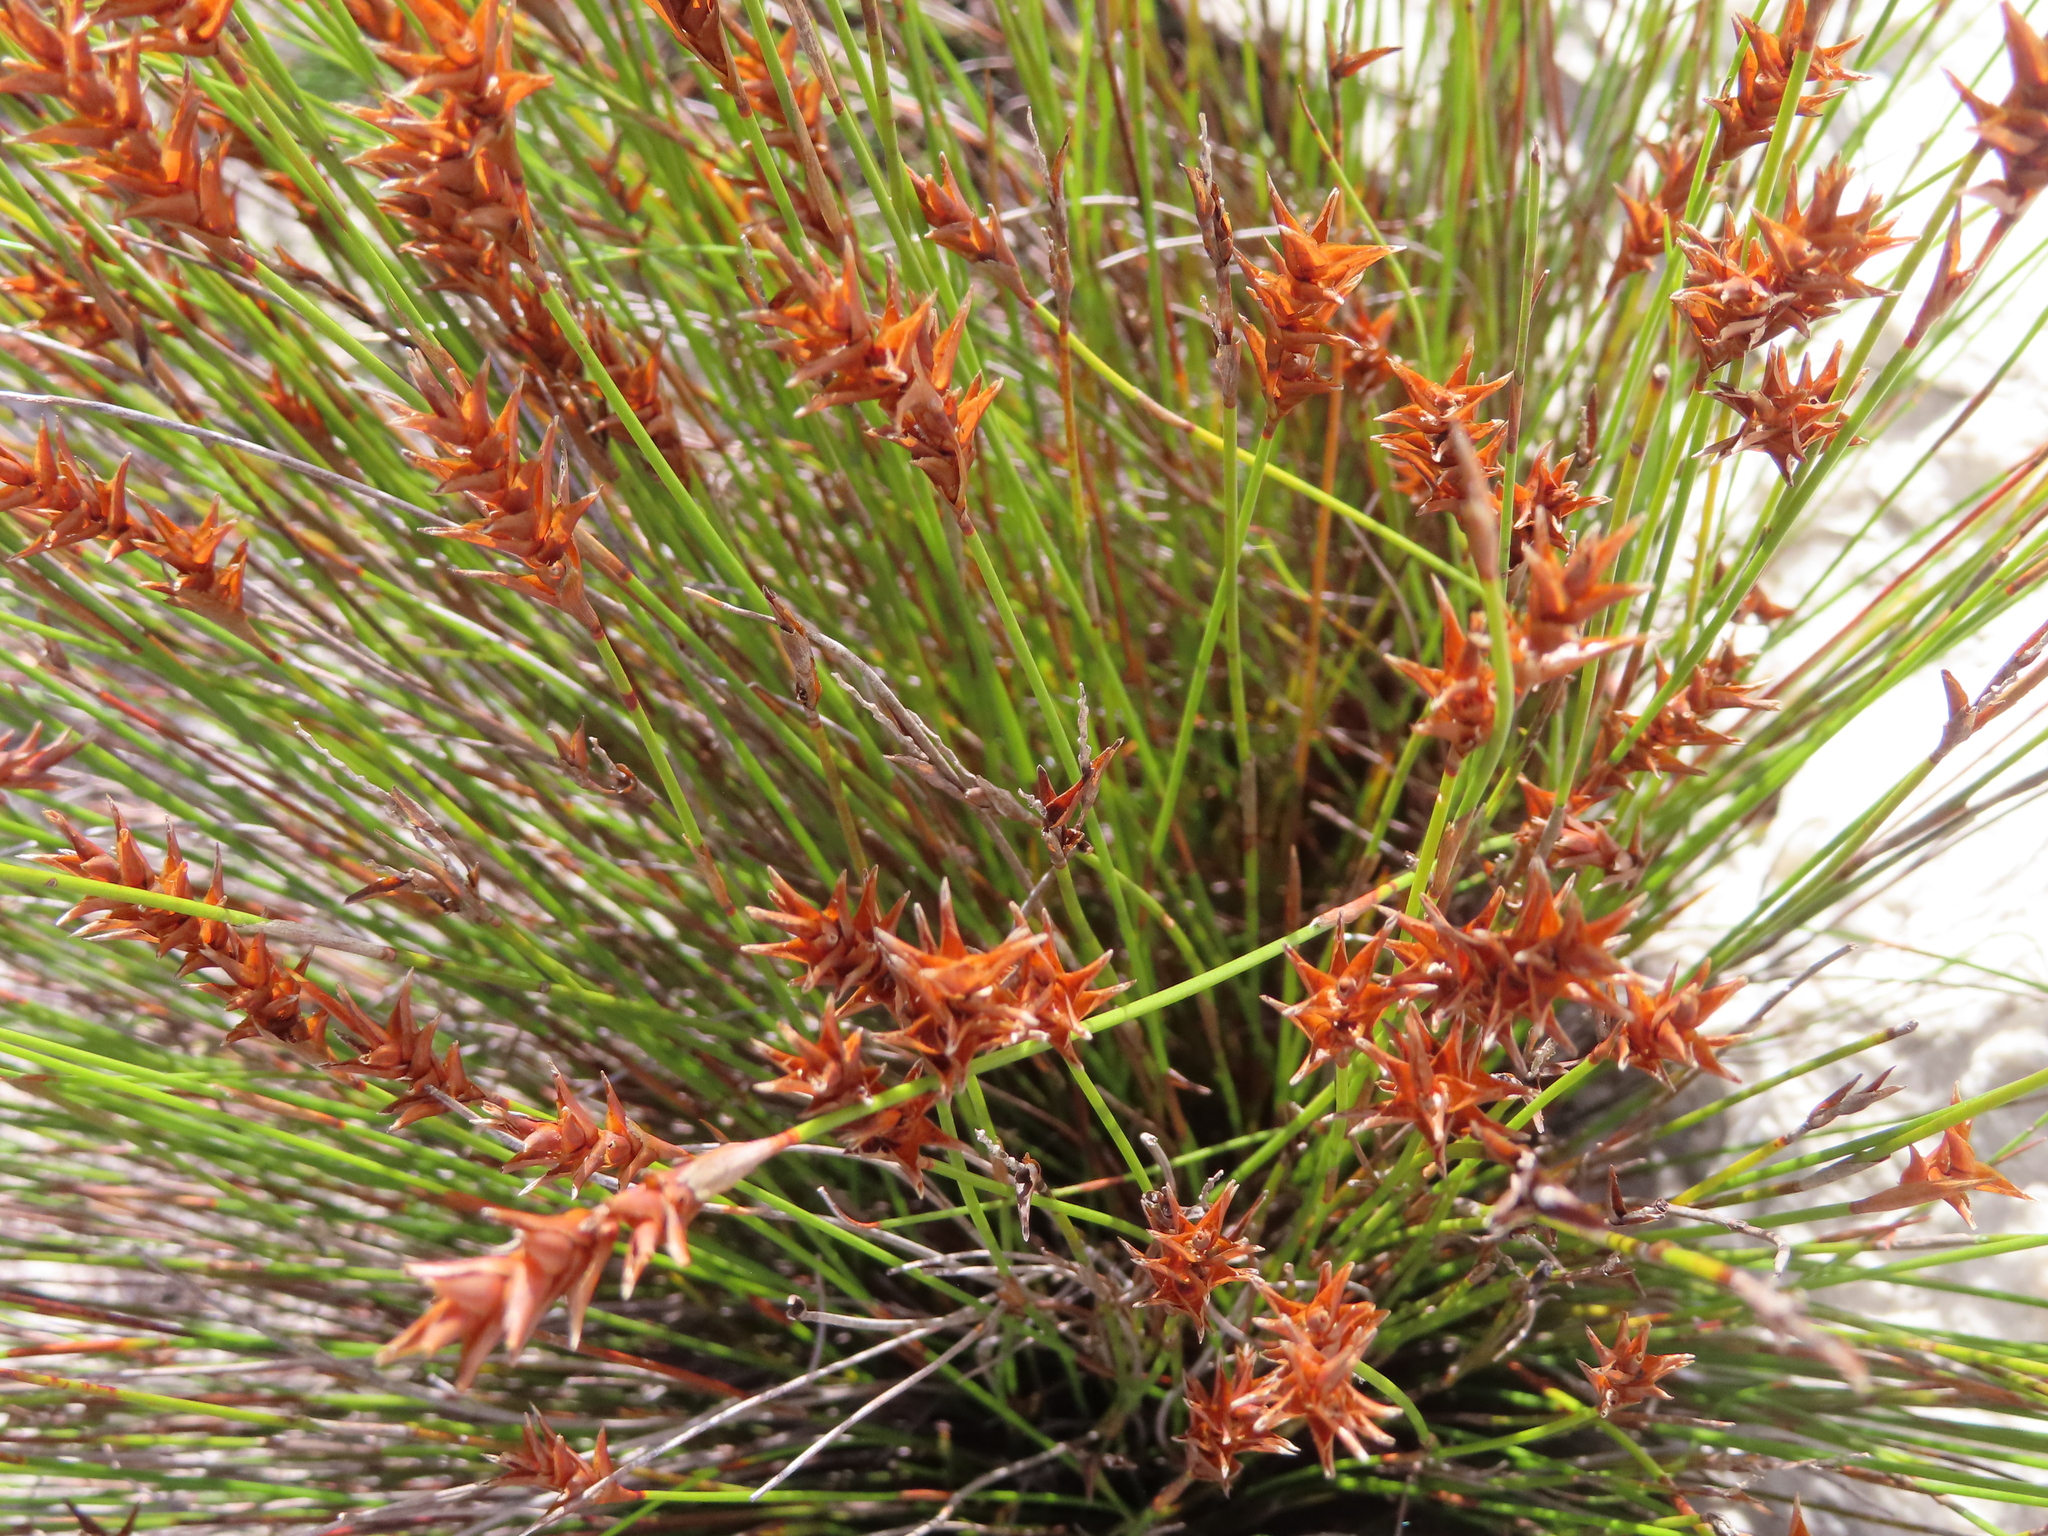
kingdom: Plantae
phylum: Tracheophyta
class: Liliopsida
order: Poales
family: Restionaceae
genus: Staberoha
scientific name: Staberoha cernua
